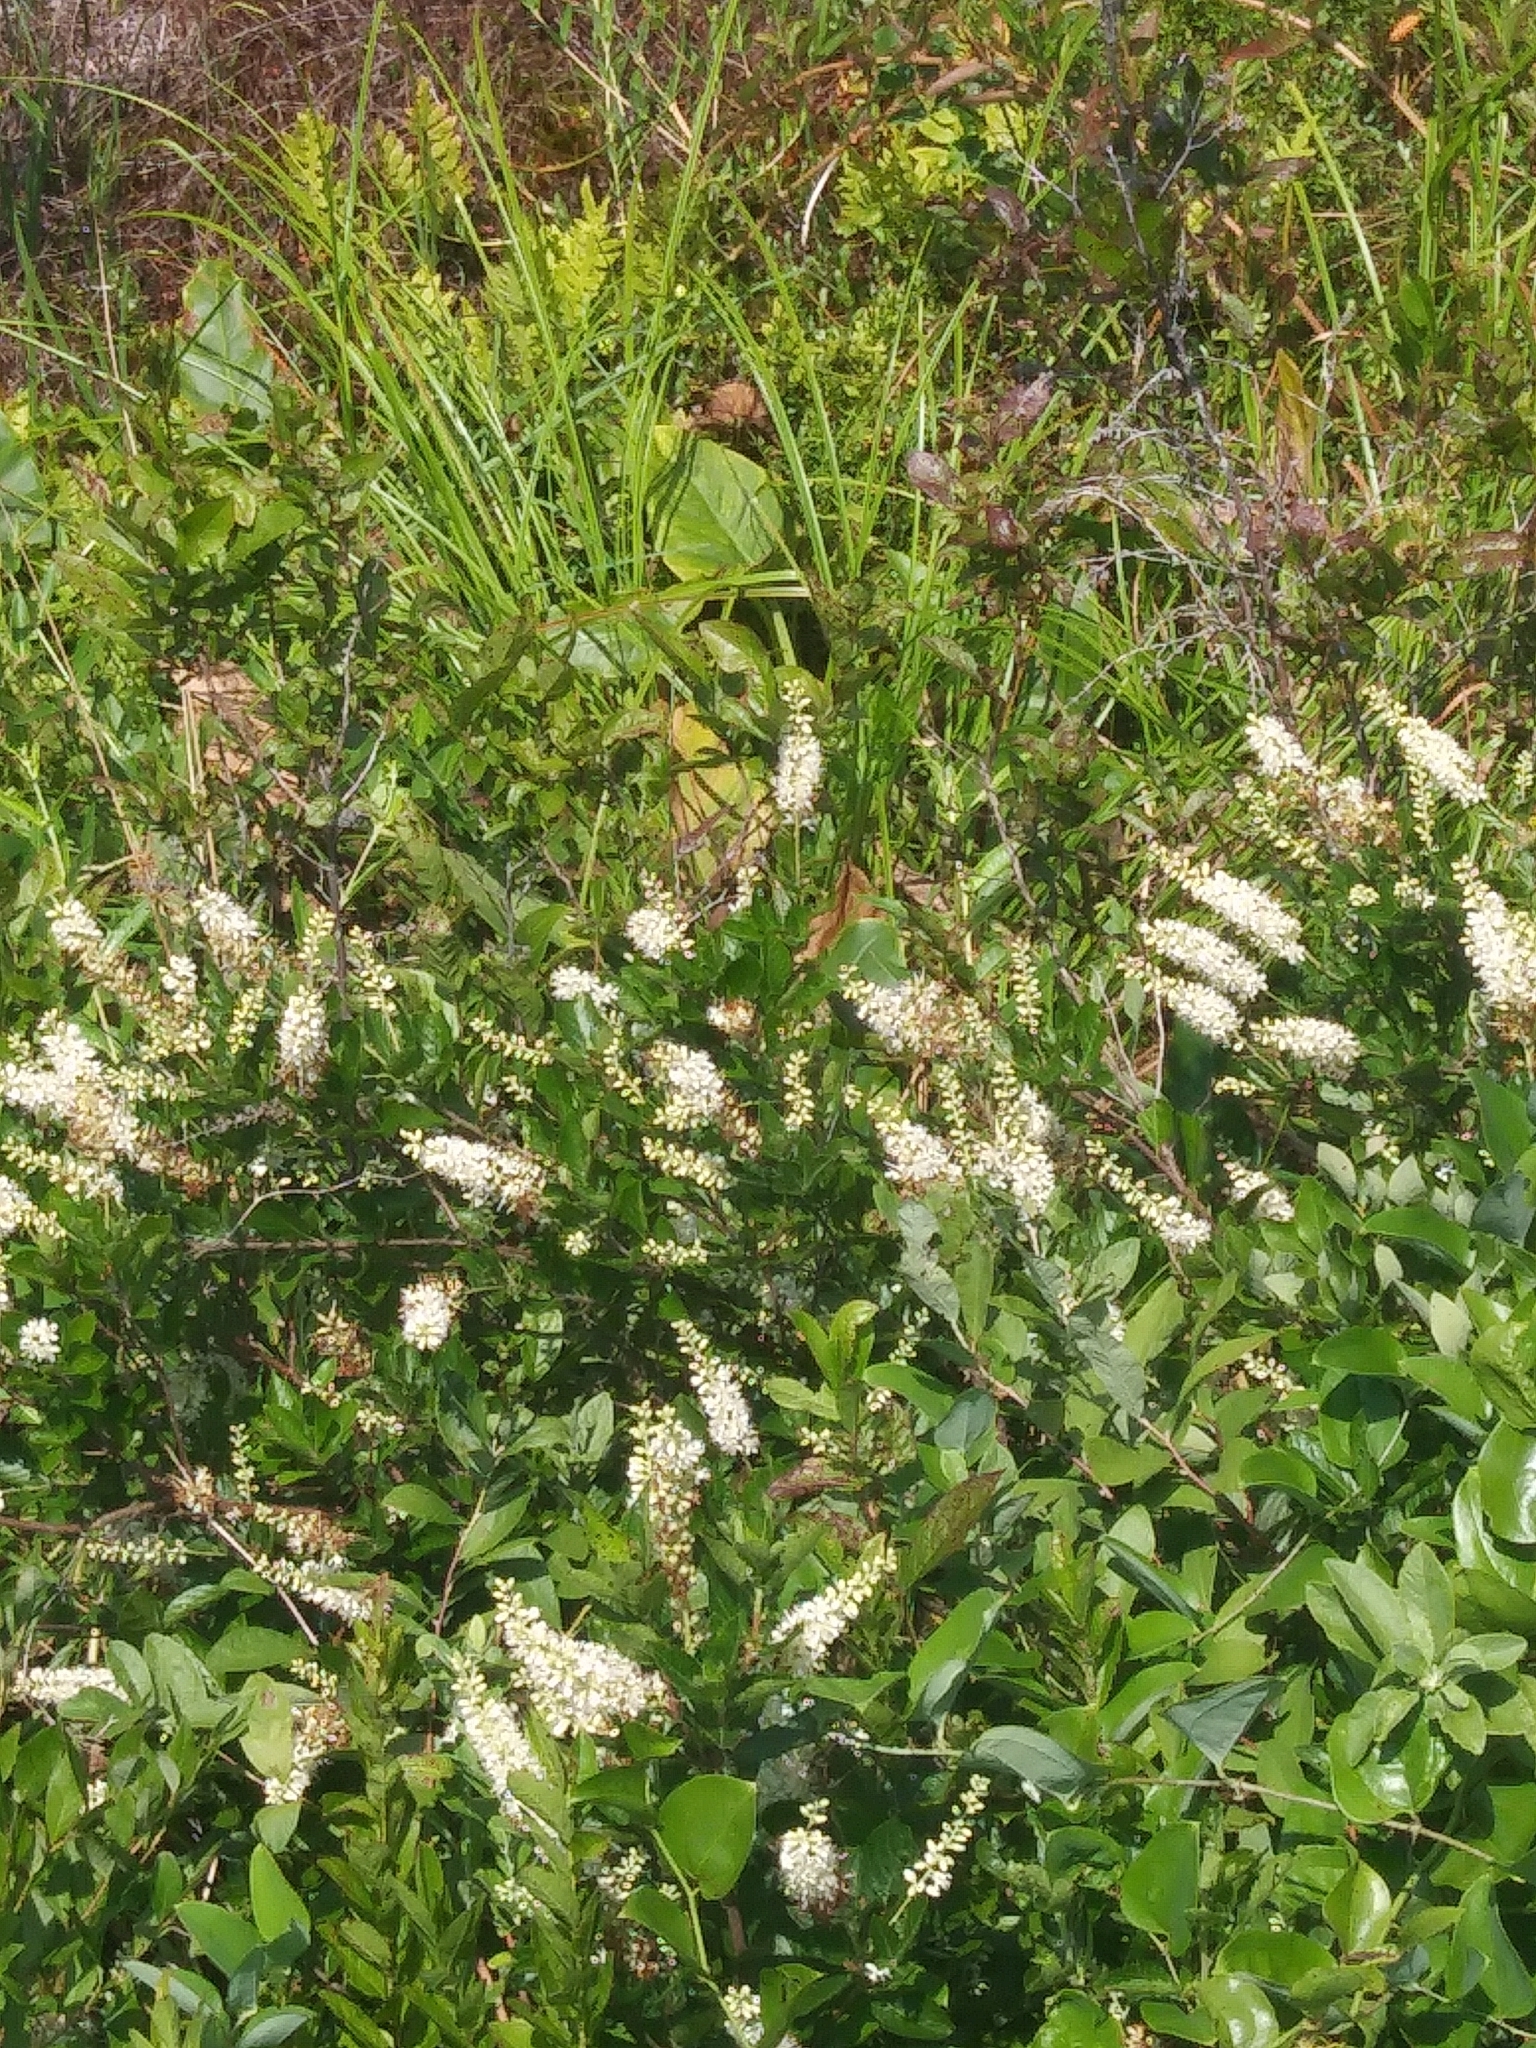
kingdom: Plantae
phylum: Tracheophyta
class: Magnoliopsida
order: Ericales
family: Clethraceae
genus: Clethra
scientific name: Clethra alnifolia
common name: Sweet pepperbush
